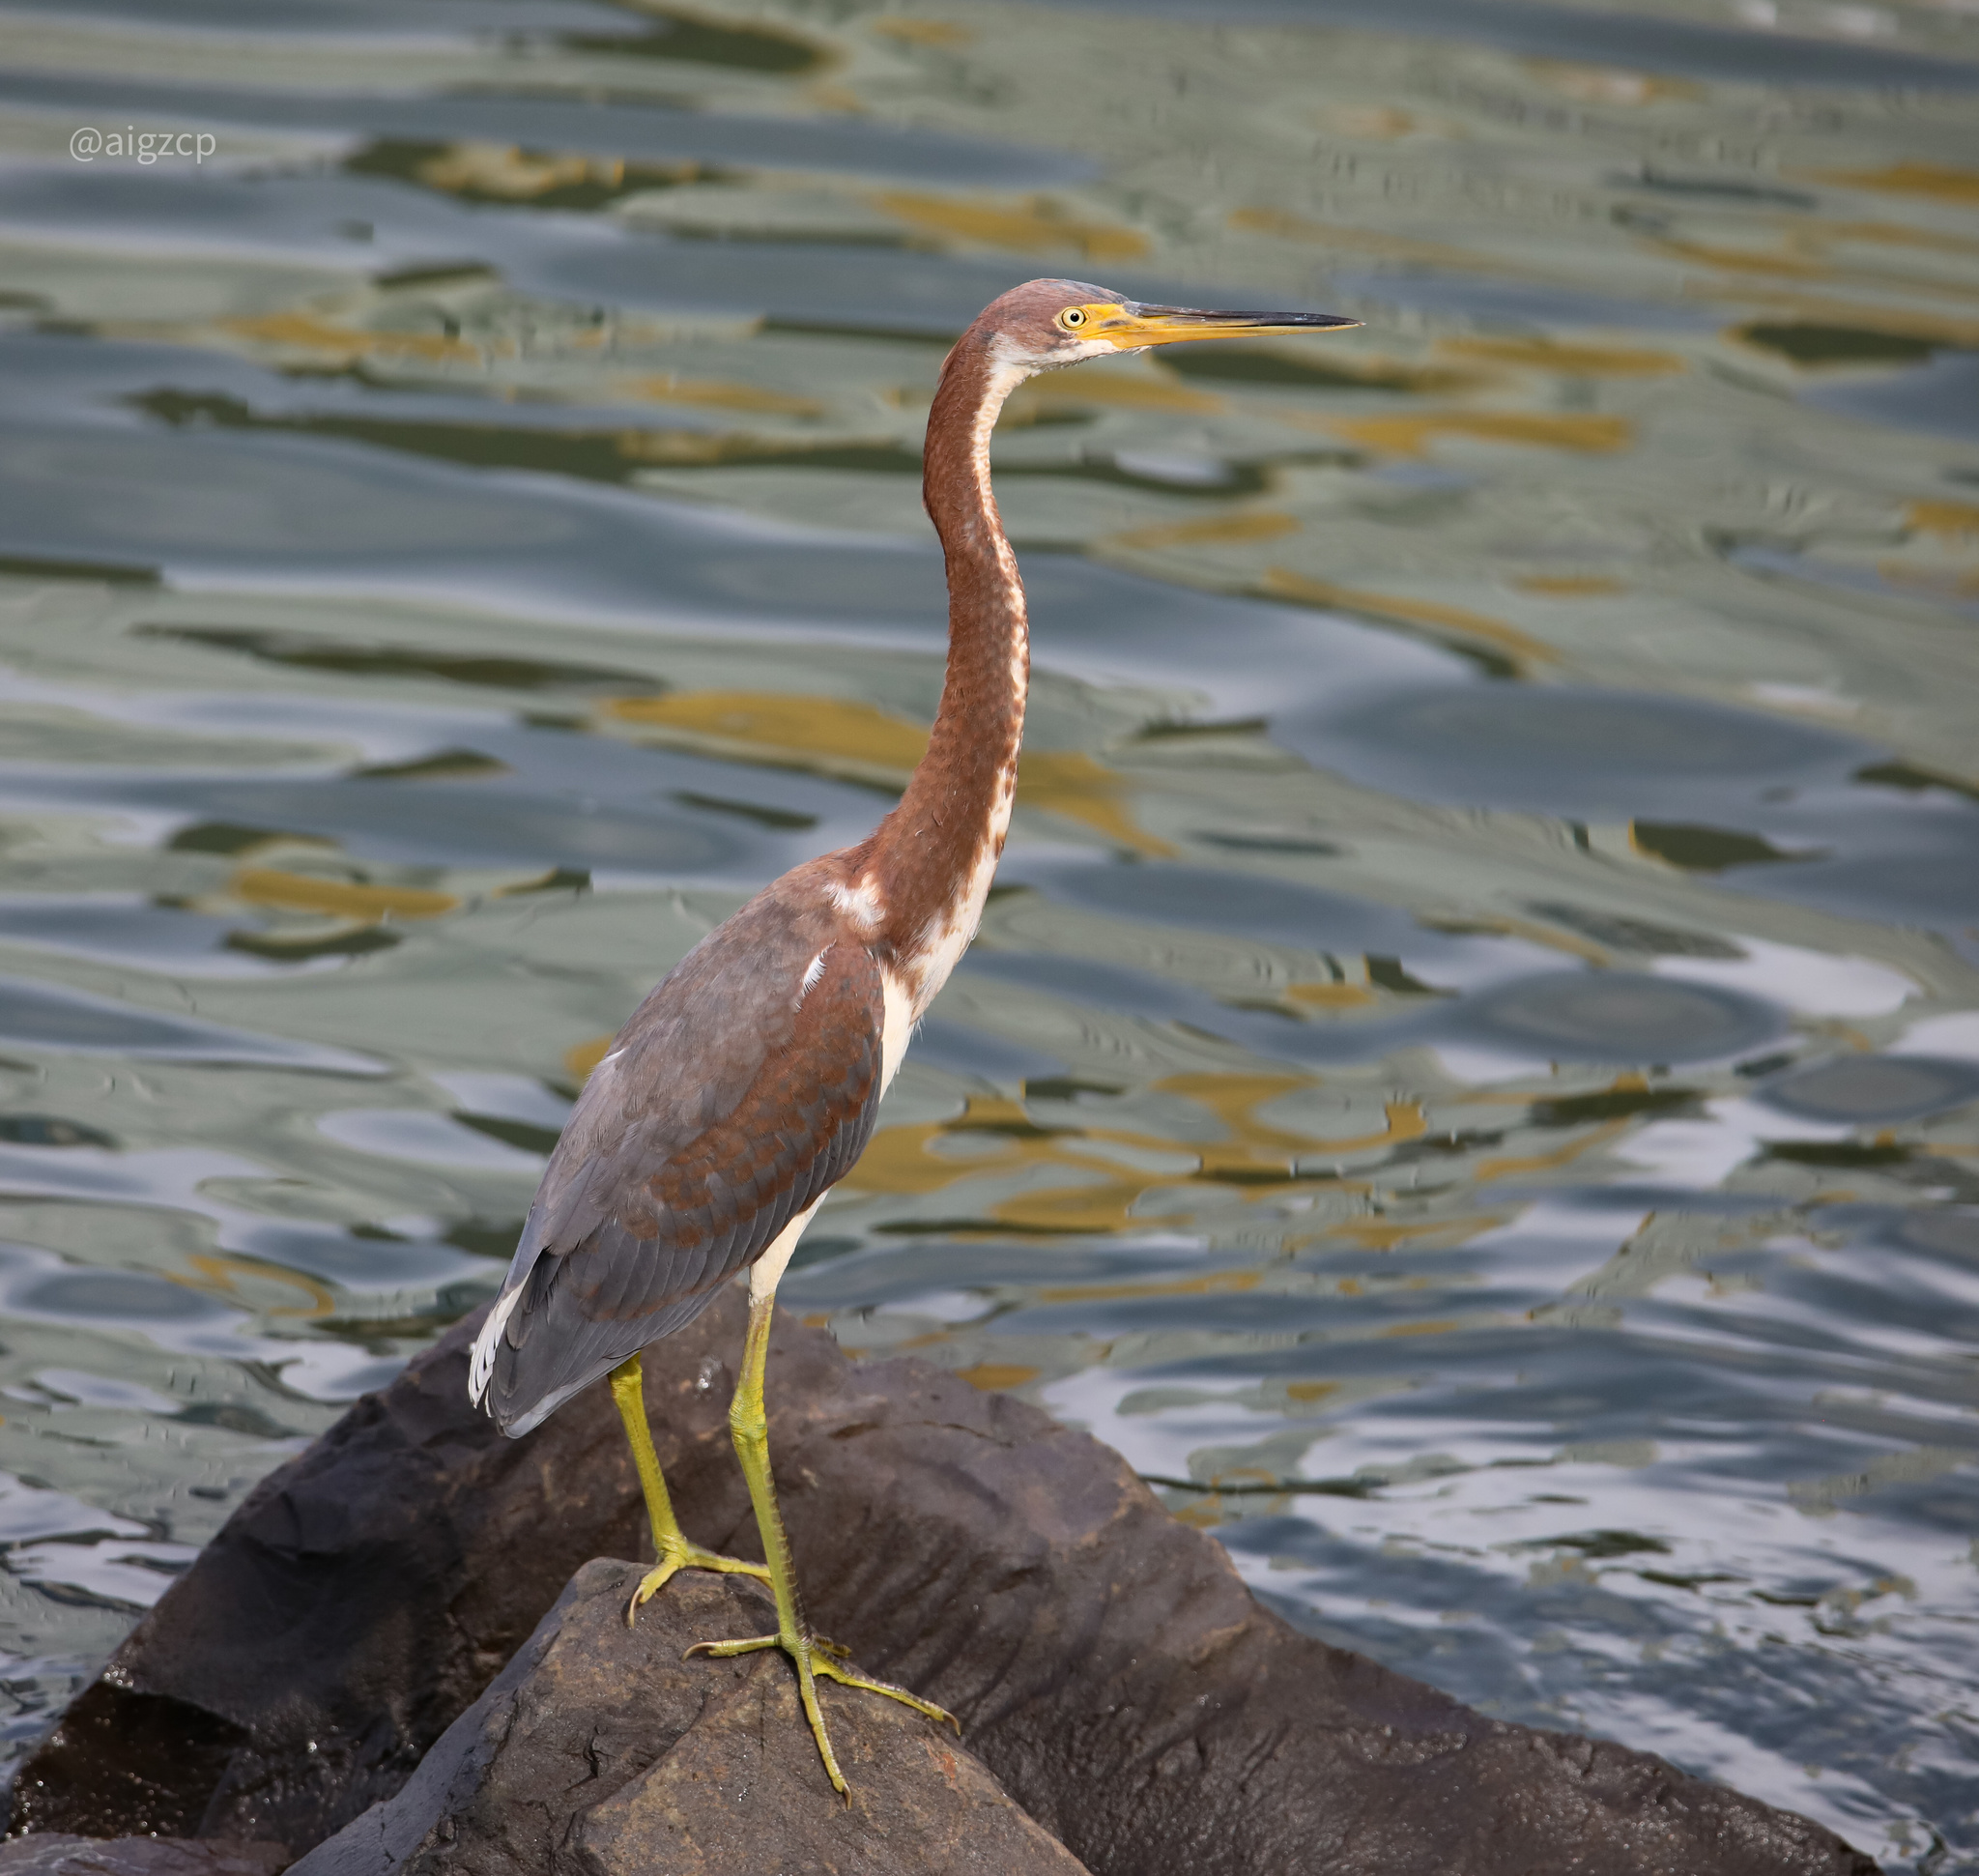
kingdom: Animalia
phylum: Chordata
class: Aves
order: Pelecaniformes
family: Ardeidae
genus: Egretta
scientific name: Egretta tricolor
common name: Tricolored heron
